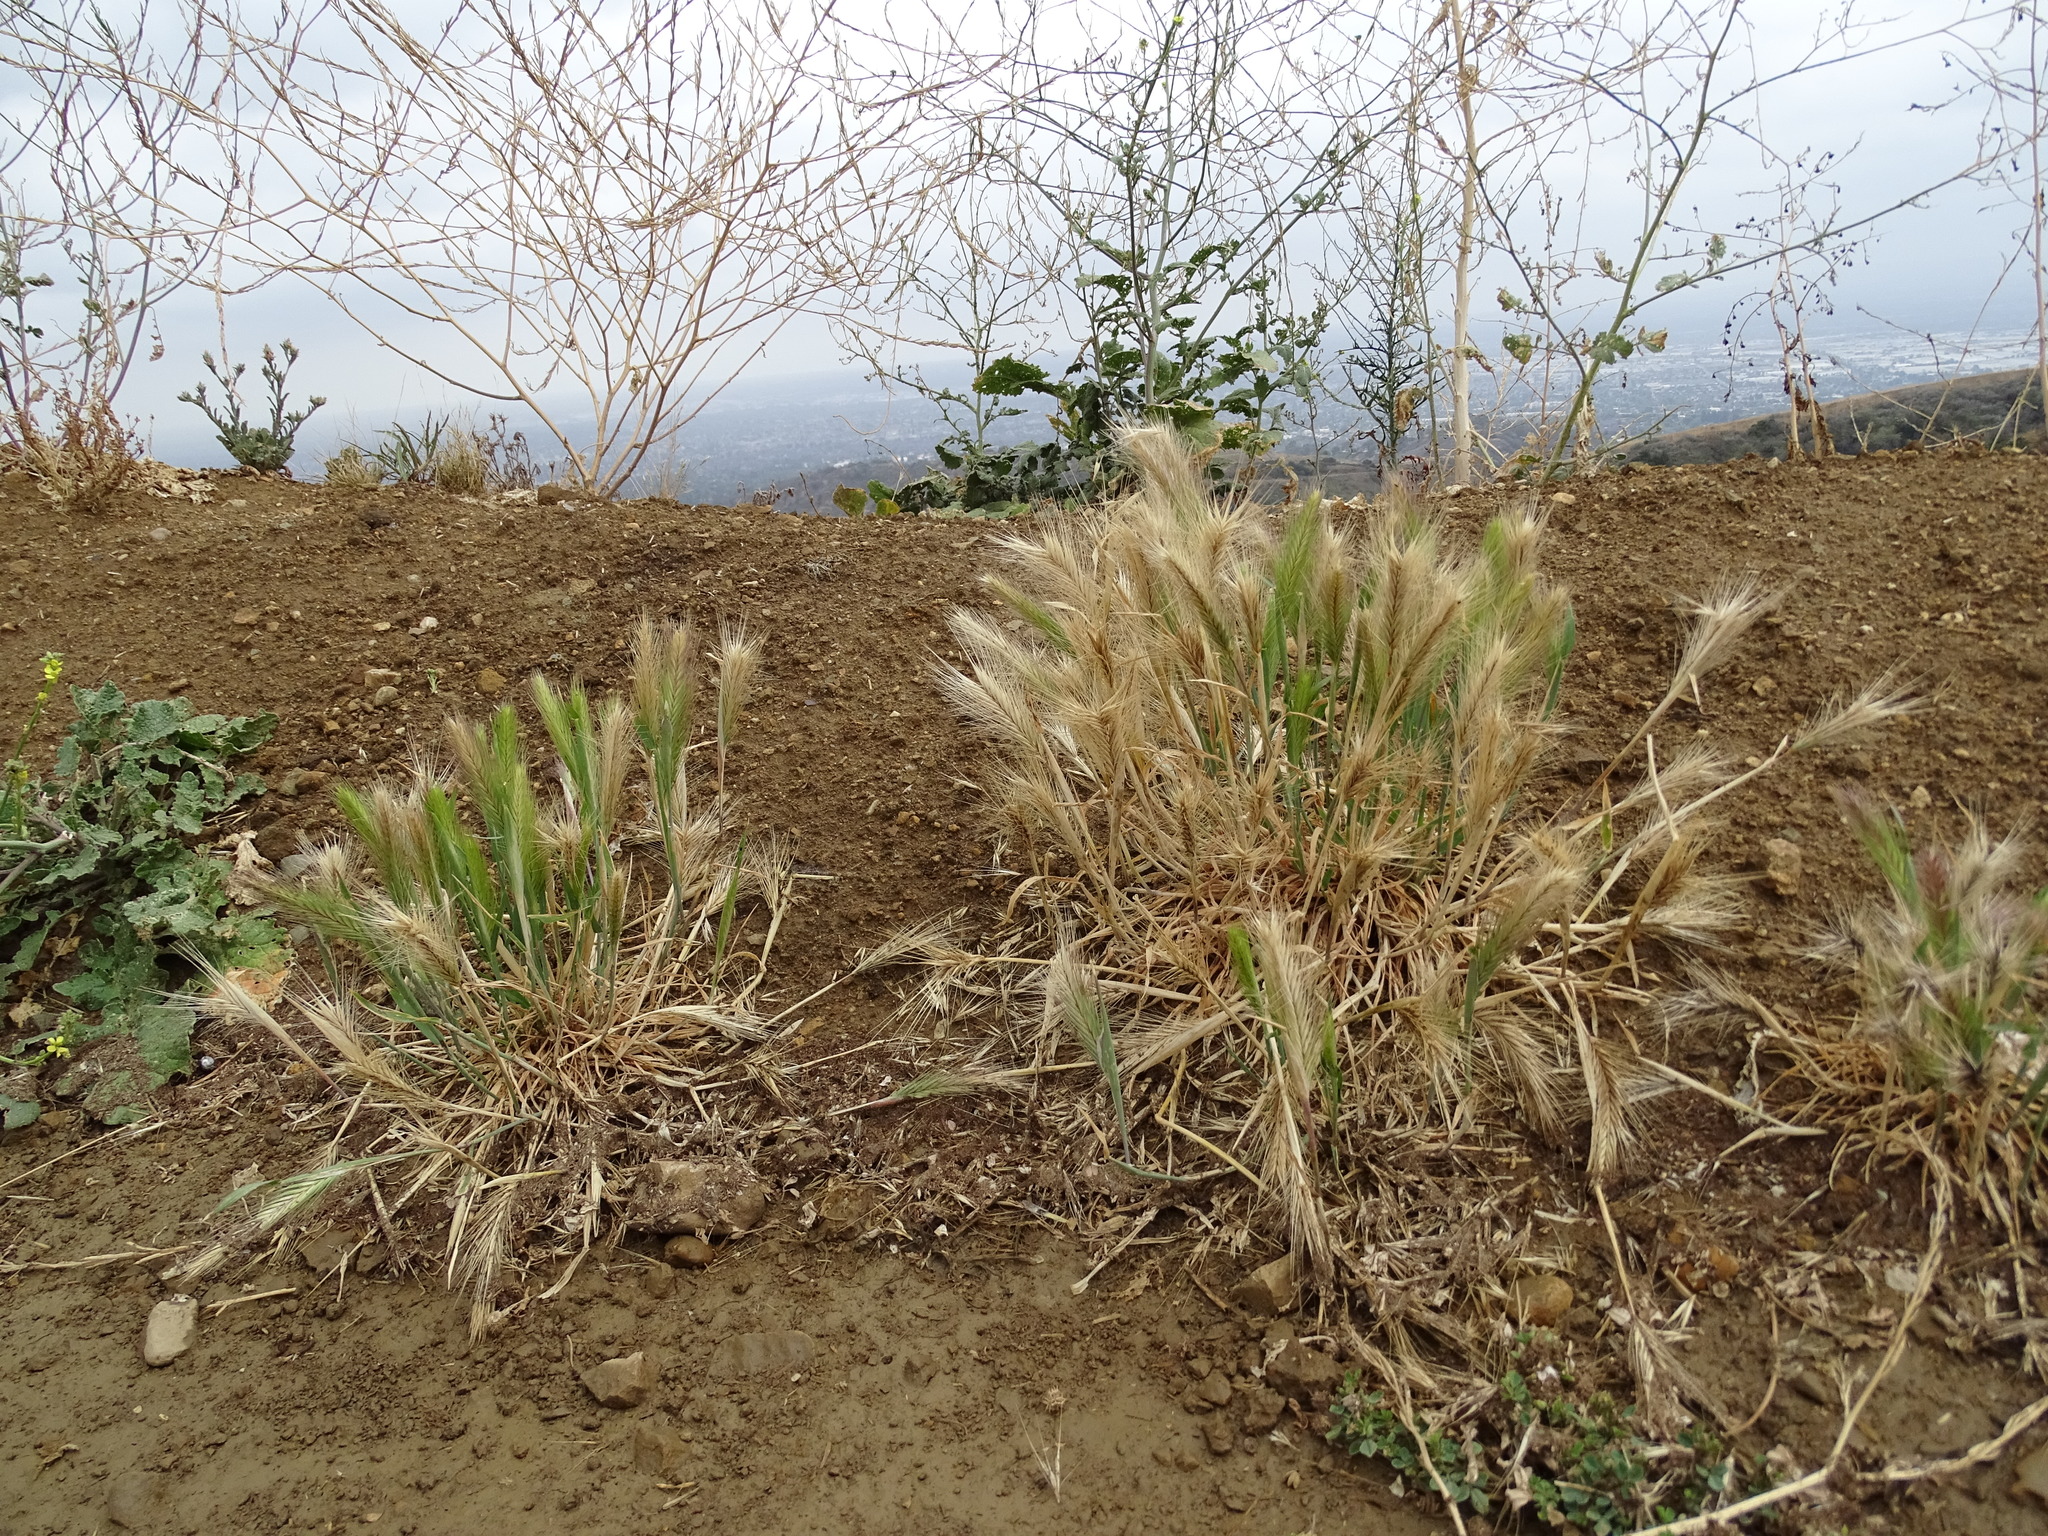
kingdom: Plantae
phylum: Tracheophyta
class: Liliopsida
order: Poales
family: Poaceae
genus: Hordeum
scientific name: Hordeum murinum
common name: Wall barley
